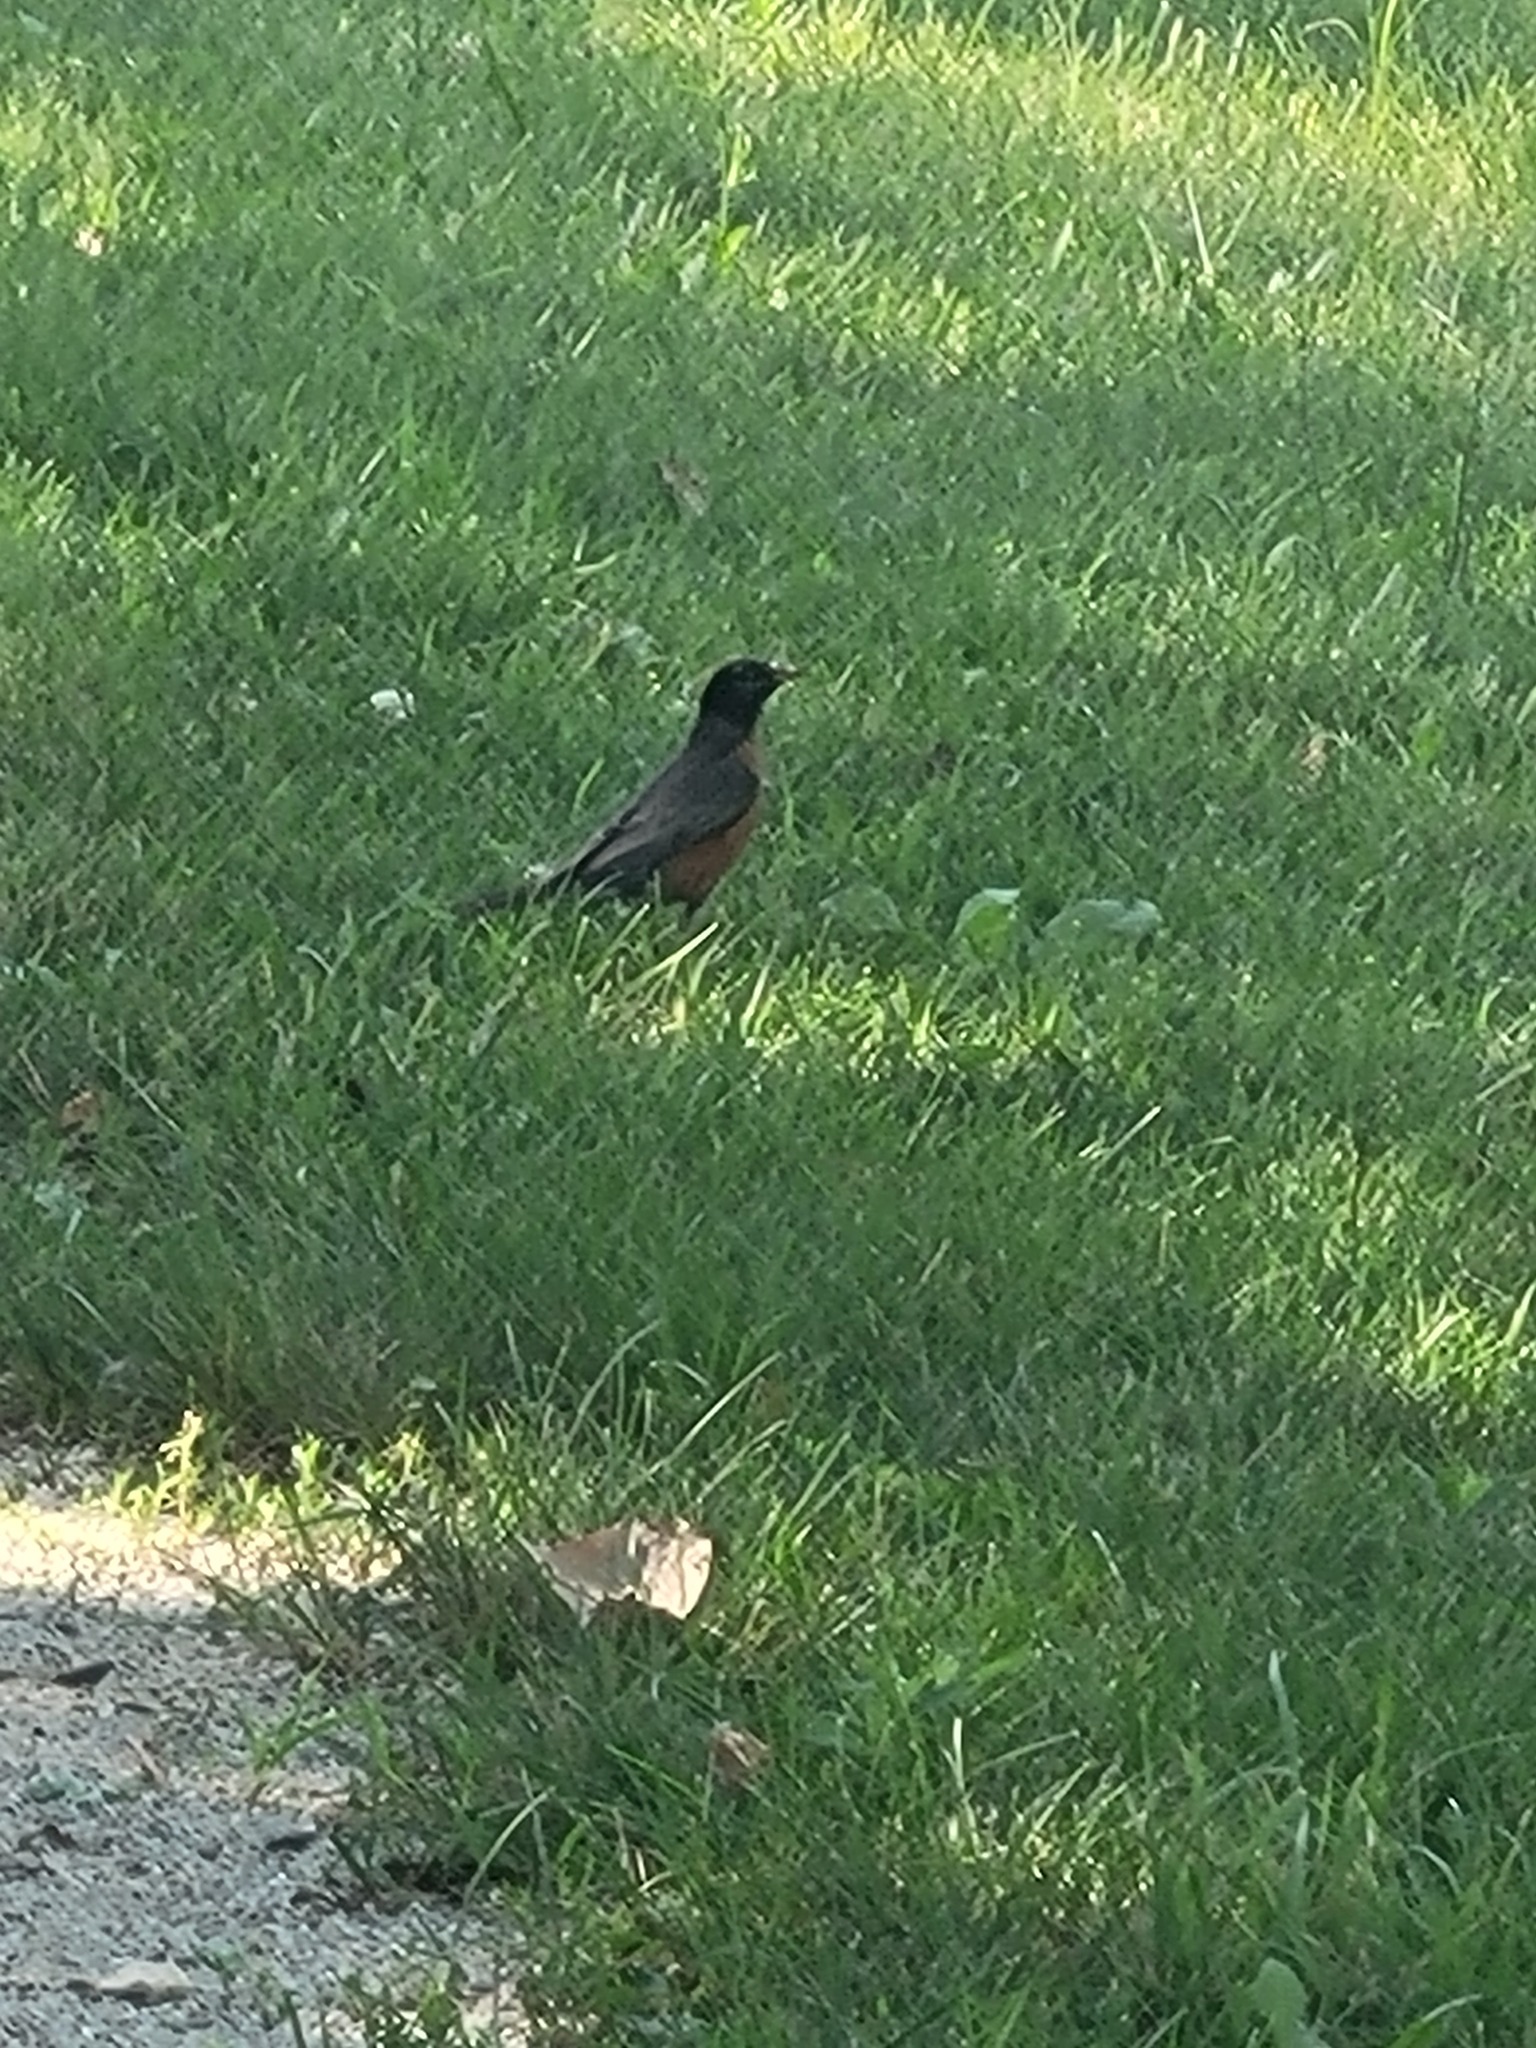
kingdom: Animalia
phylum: Chordata
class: Aves
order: Passeriformes
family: Turdidae
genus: Turdus
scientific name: Turdus migratorius
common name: American robin
